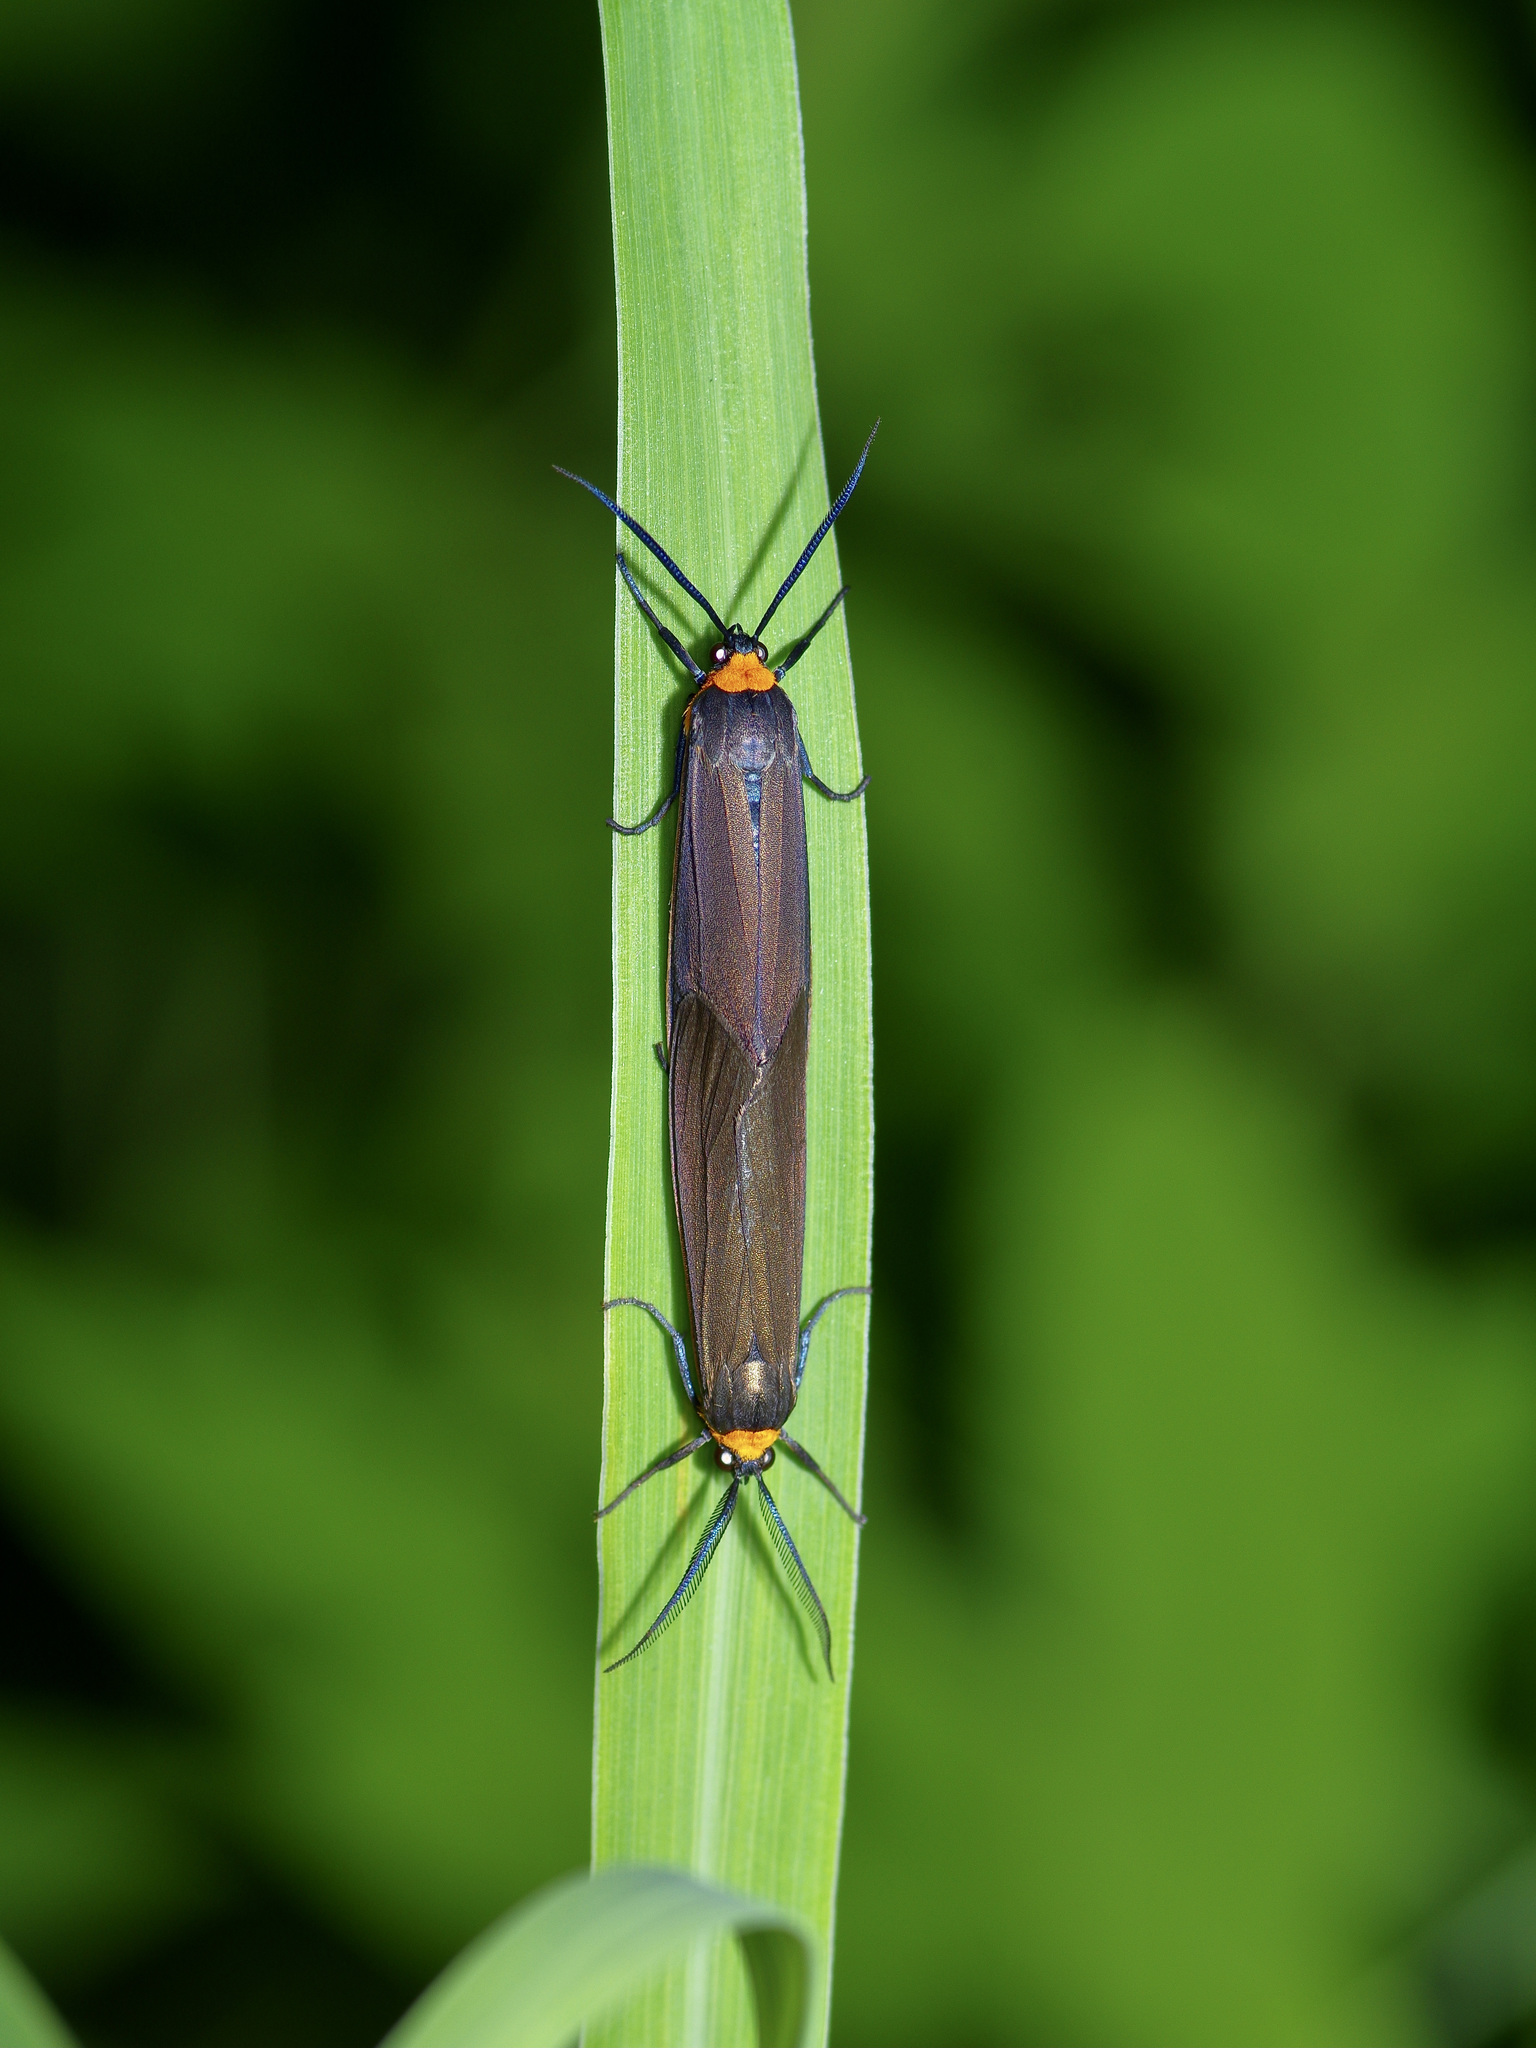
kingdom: Animalia
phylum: Arthropoda
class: Insecta
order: Lepidoptera
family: Erebidae
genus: Cisseps
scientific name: Cisseps fulvicollis
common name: Yellow-collared scape moth
